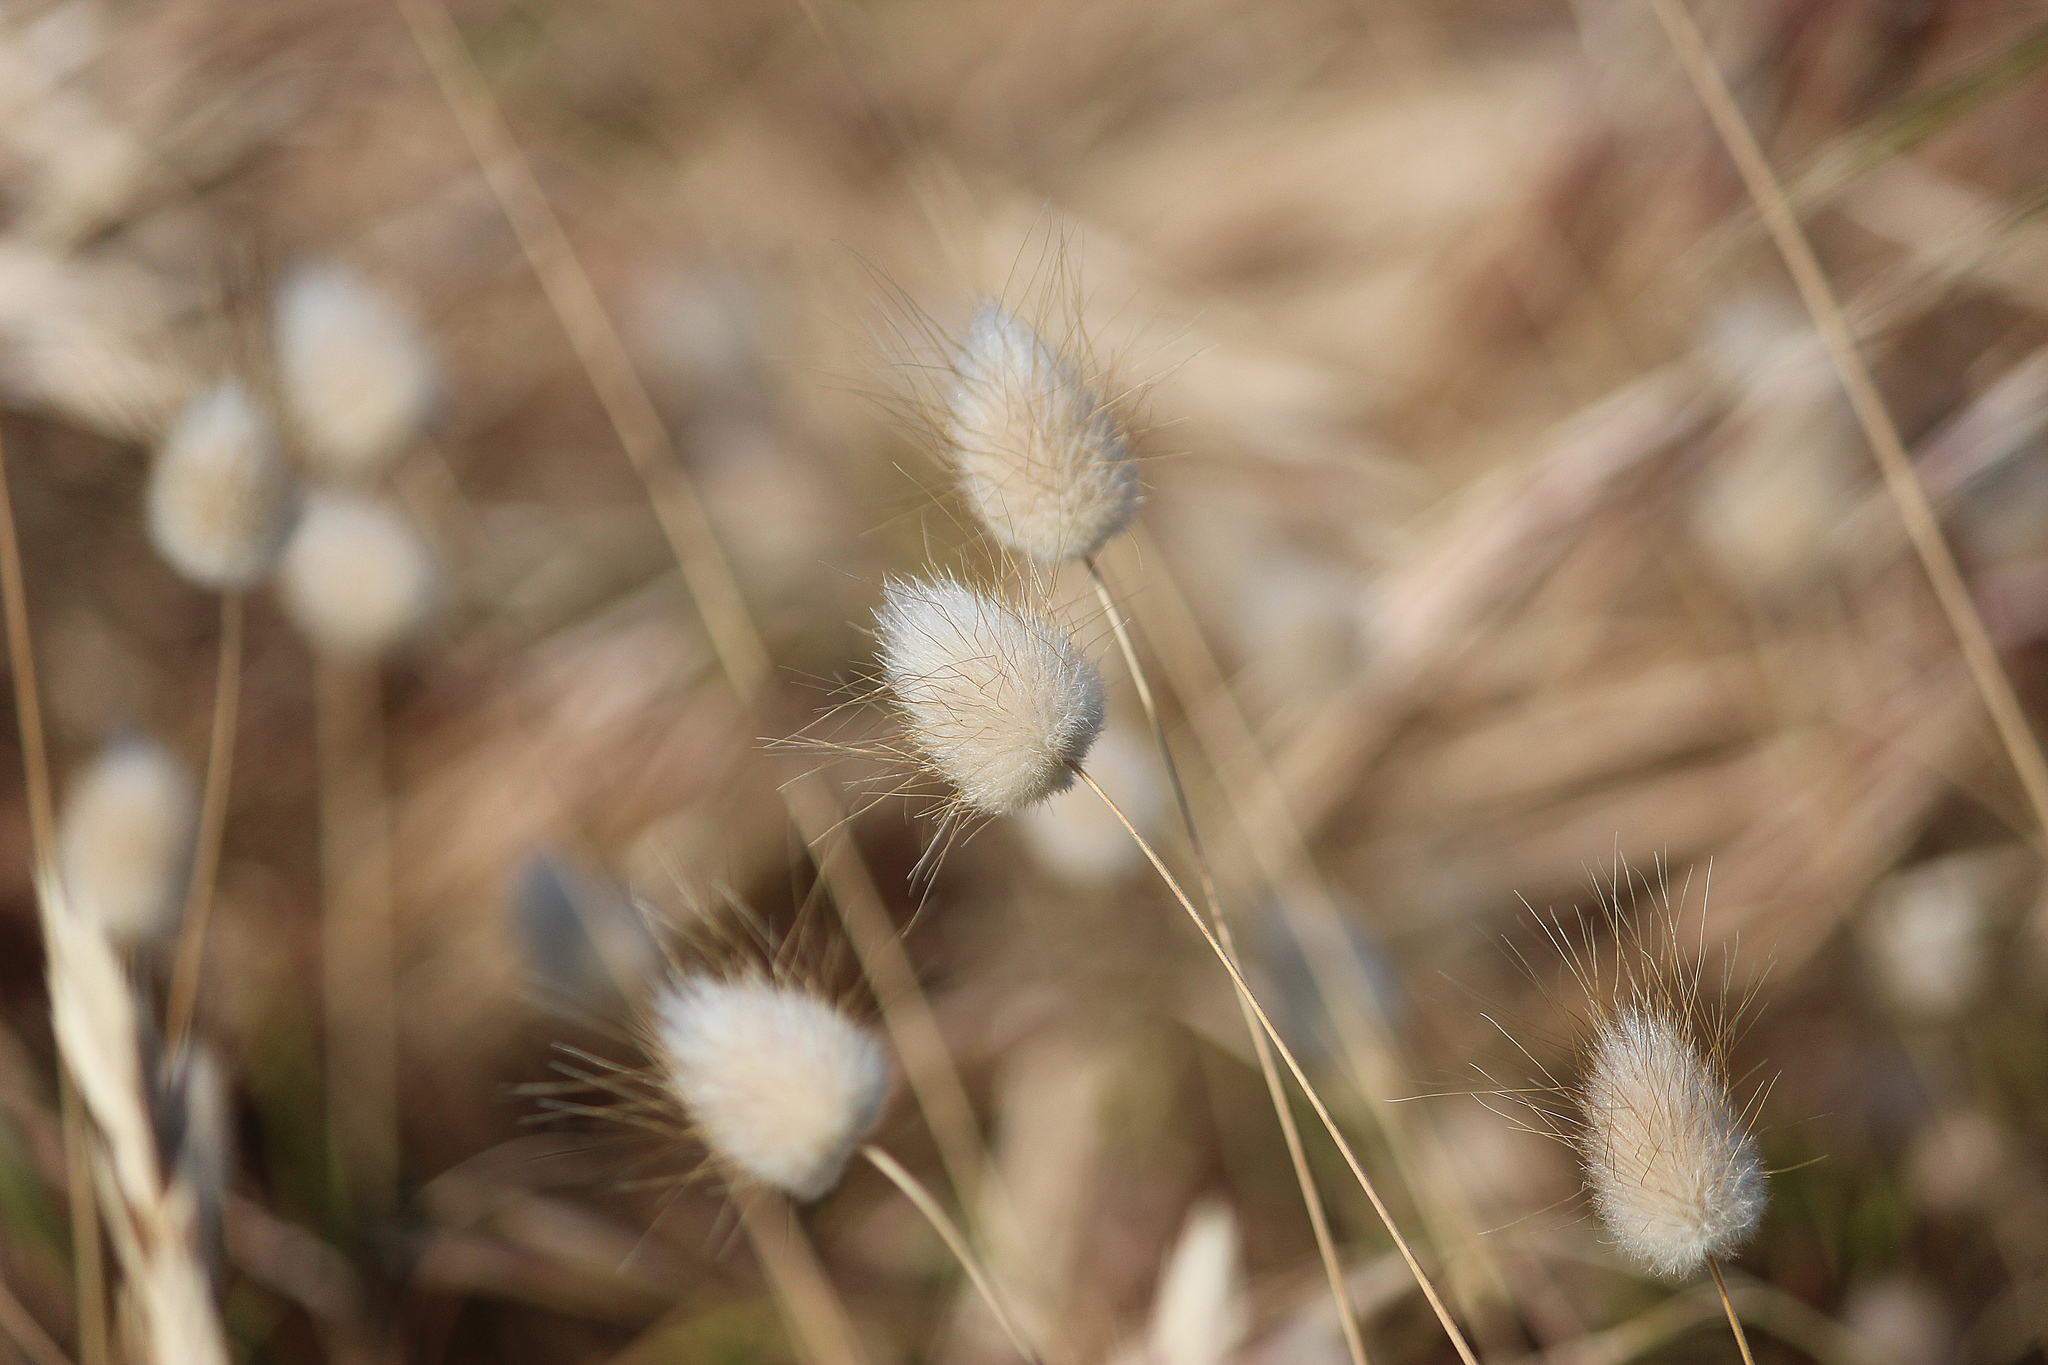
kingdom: Plantae
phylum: Tracheophyta
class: Liliopsida
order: Poales
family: Poaceae
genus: Lagurus
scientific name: Lagurus ovatus
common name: Hare's-tail
